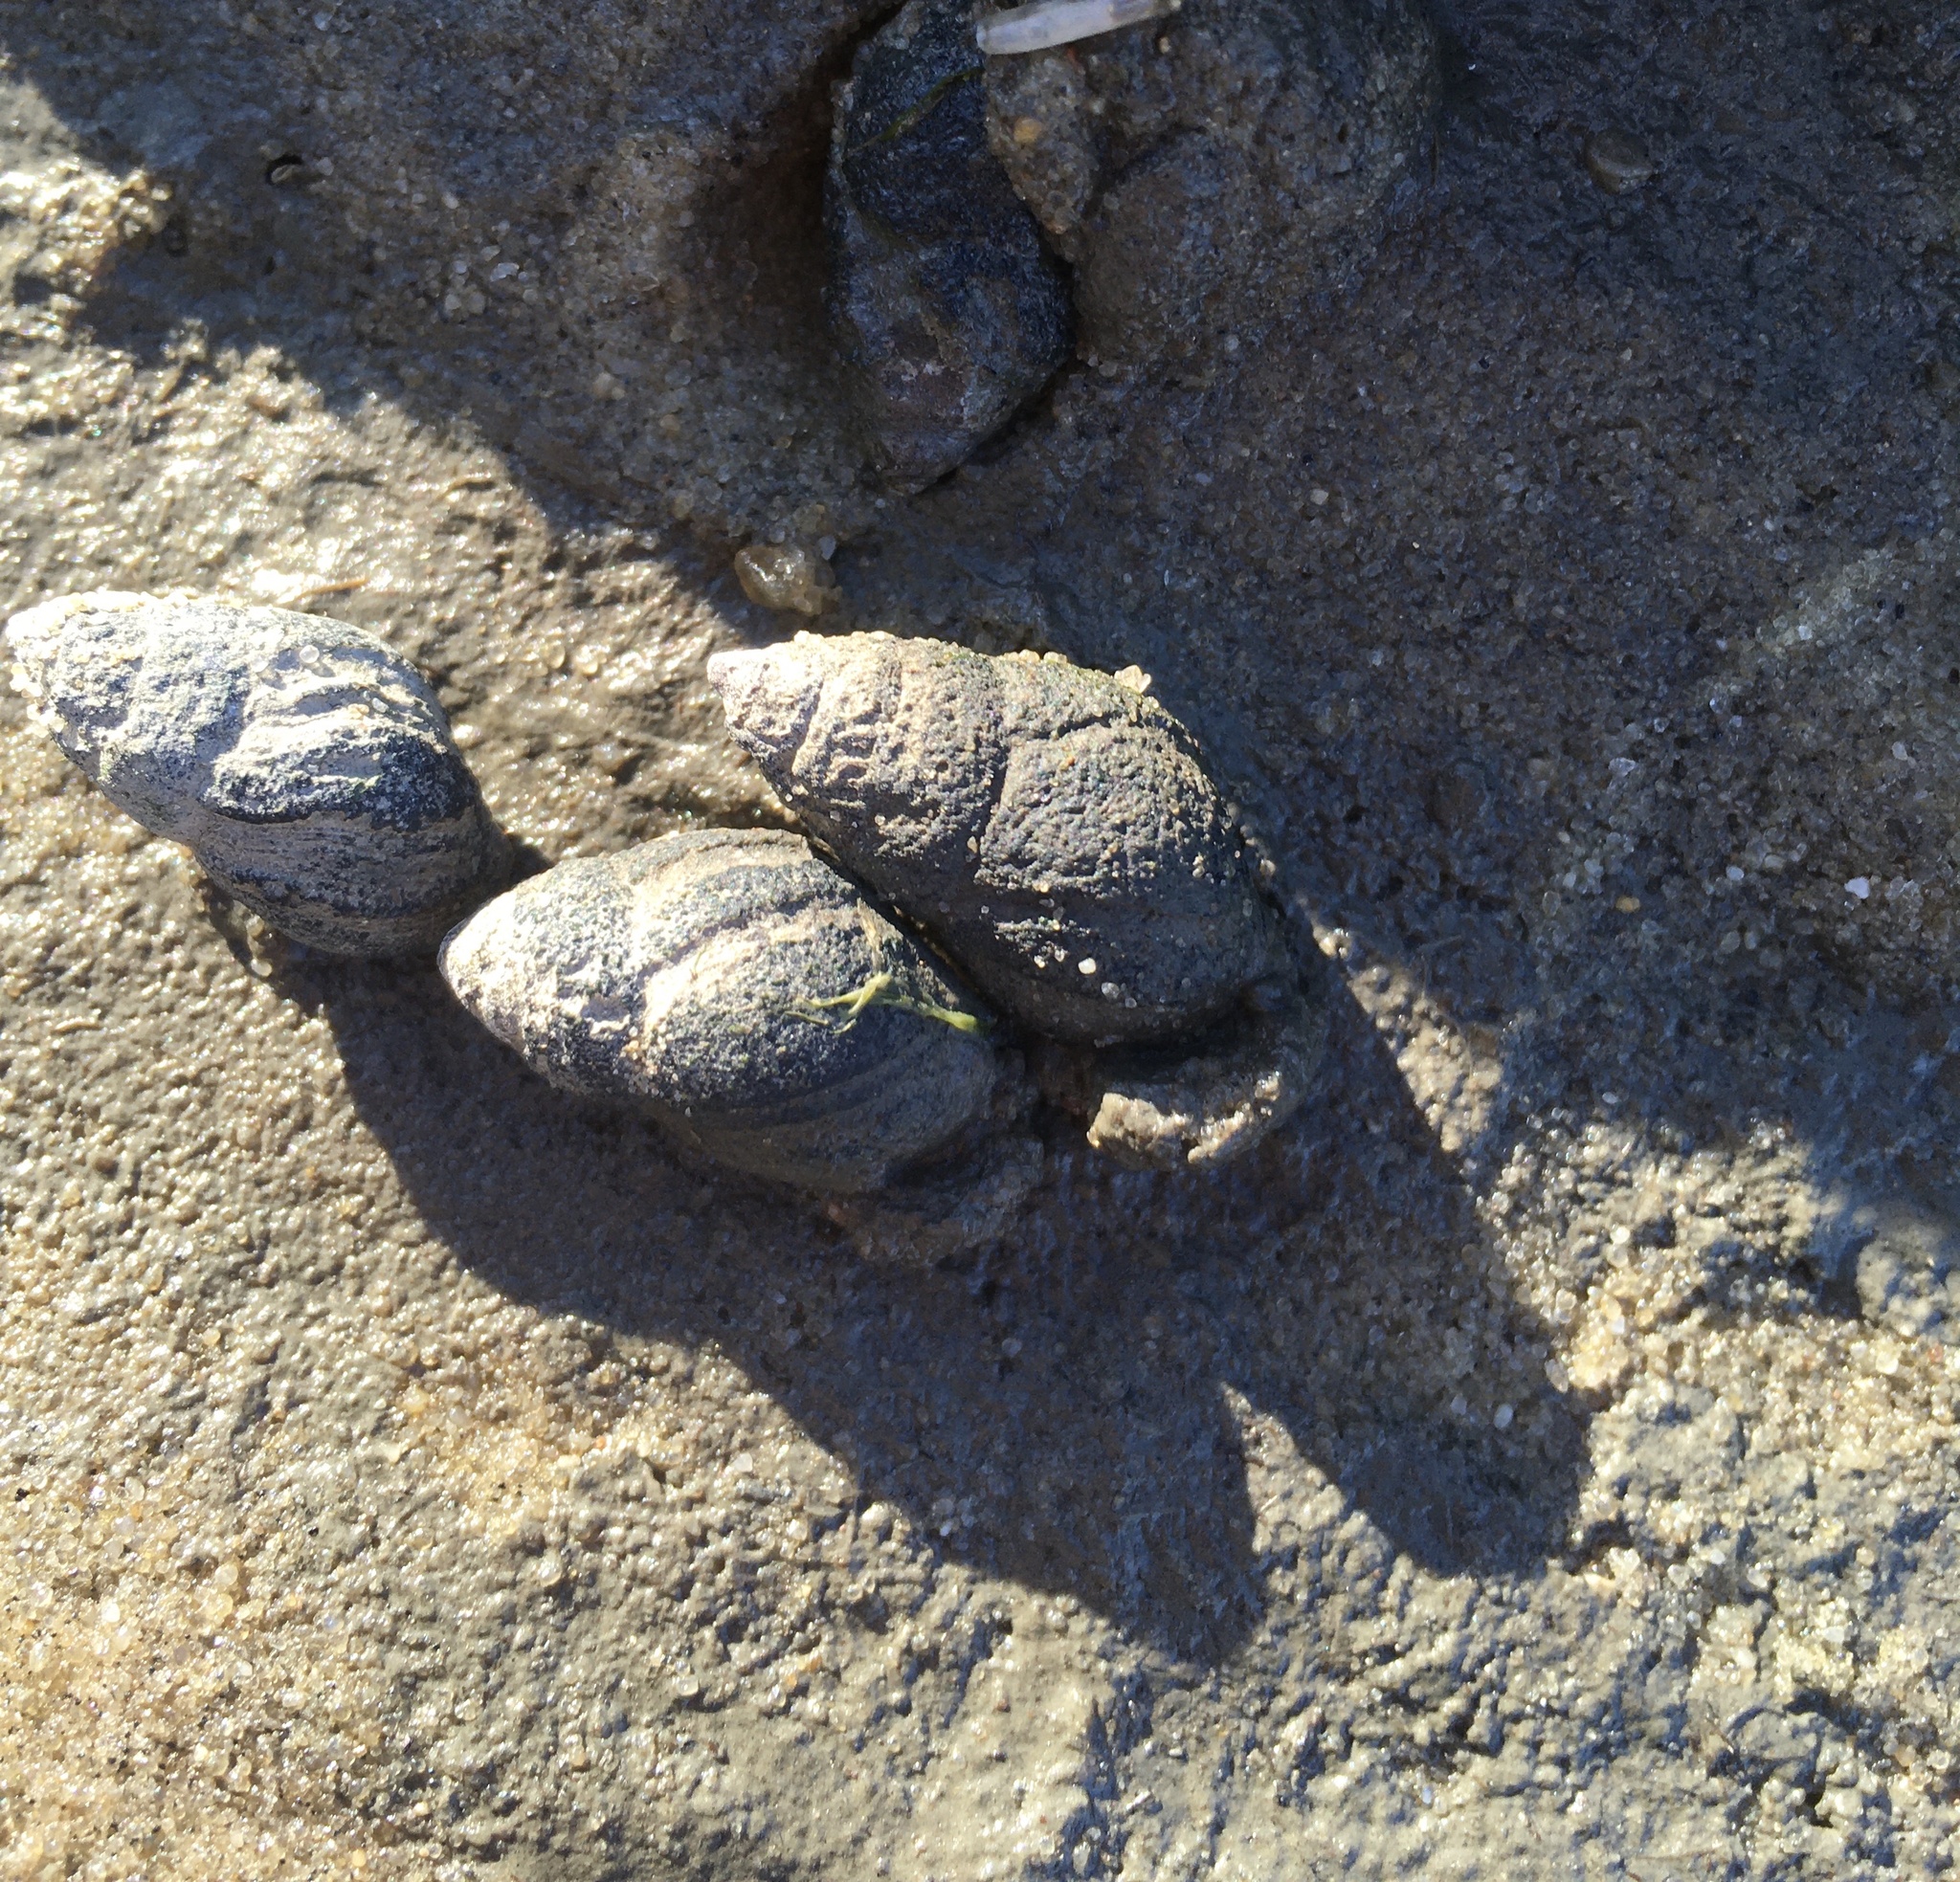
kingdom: Animalia
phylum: Mollusca
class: Gastropoda
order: Neogastropoda
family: Nassariidae
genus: Ilyanassa
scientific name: Ilyanassa obsoleta
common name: Eastern mudsnail
